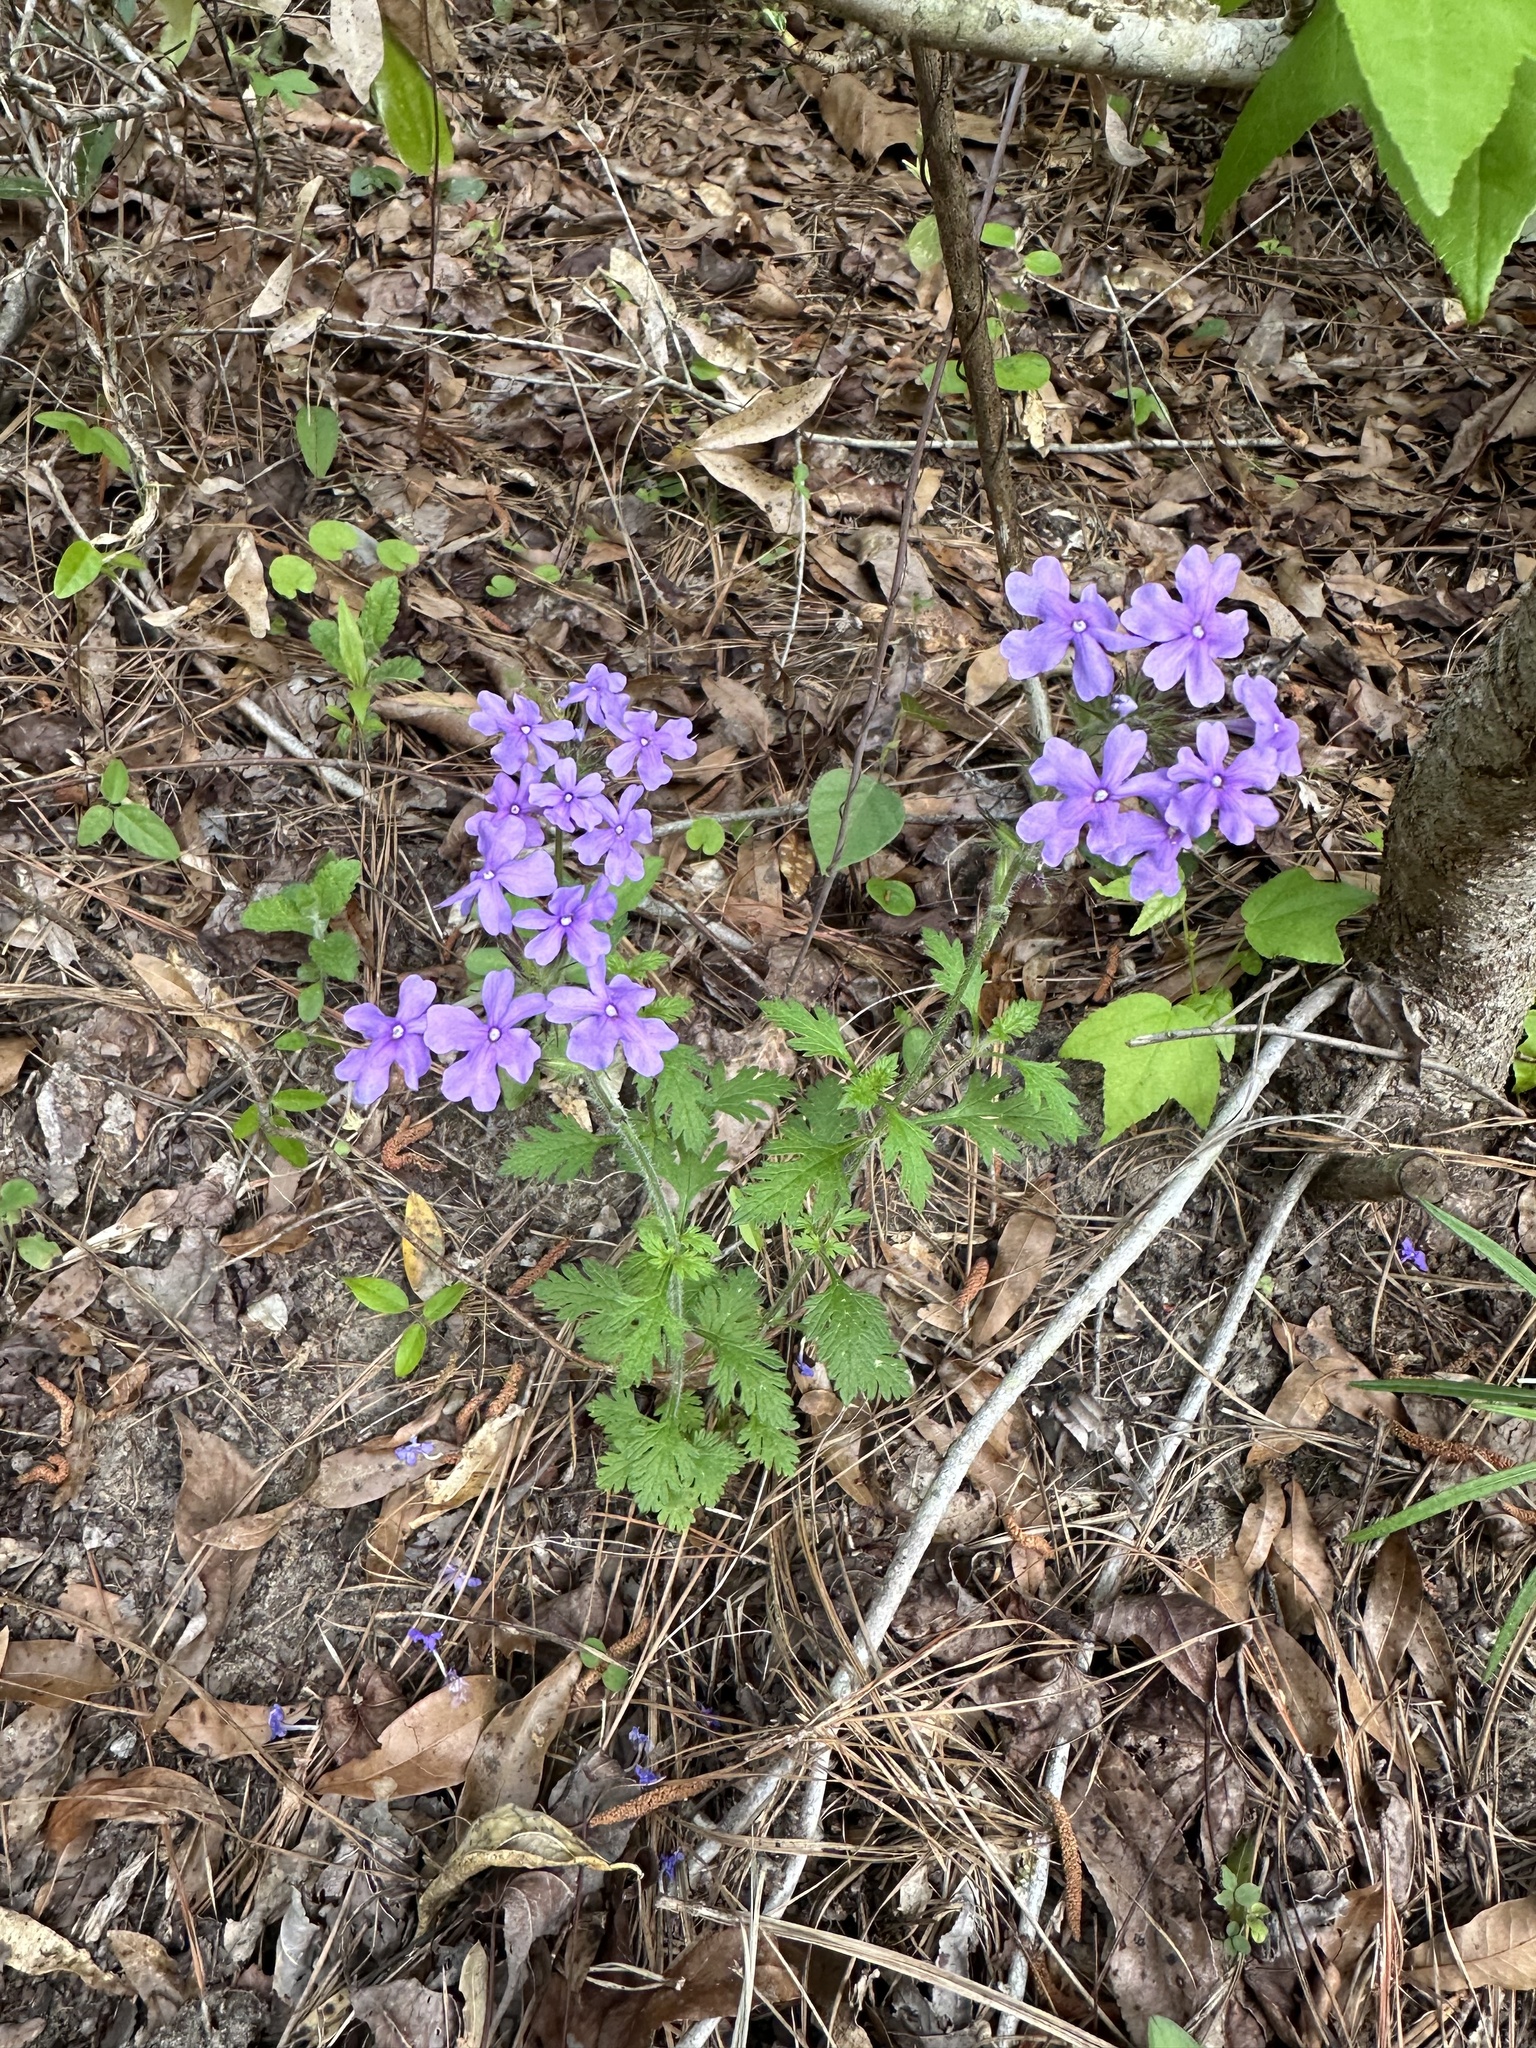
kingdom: Plantae
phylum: Tracheophyta
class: Magnoliopsida
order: Lamiales
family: Verbenaceae
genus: Verbena
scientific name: Verbena canadensis
